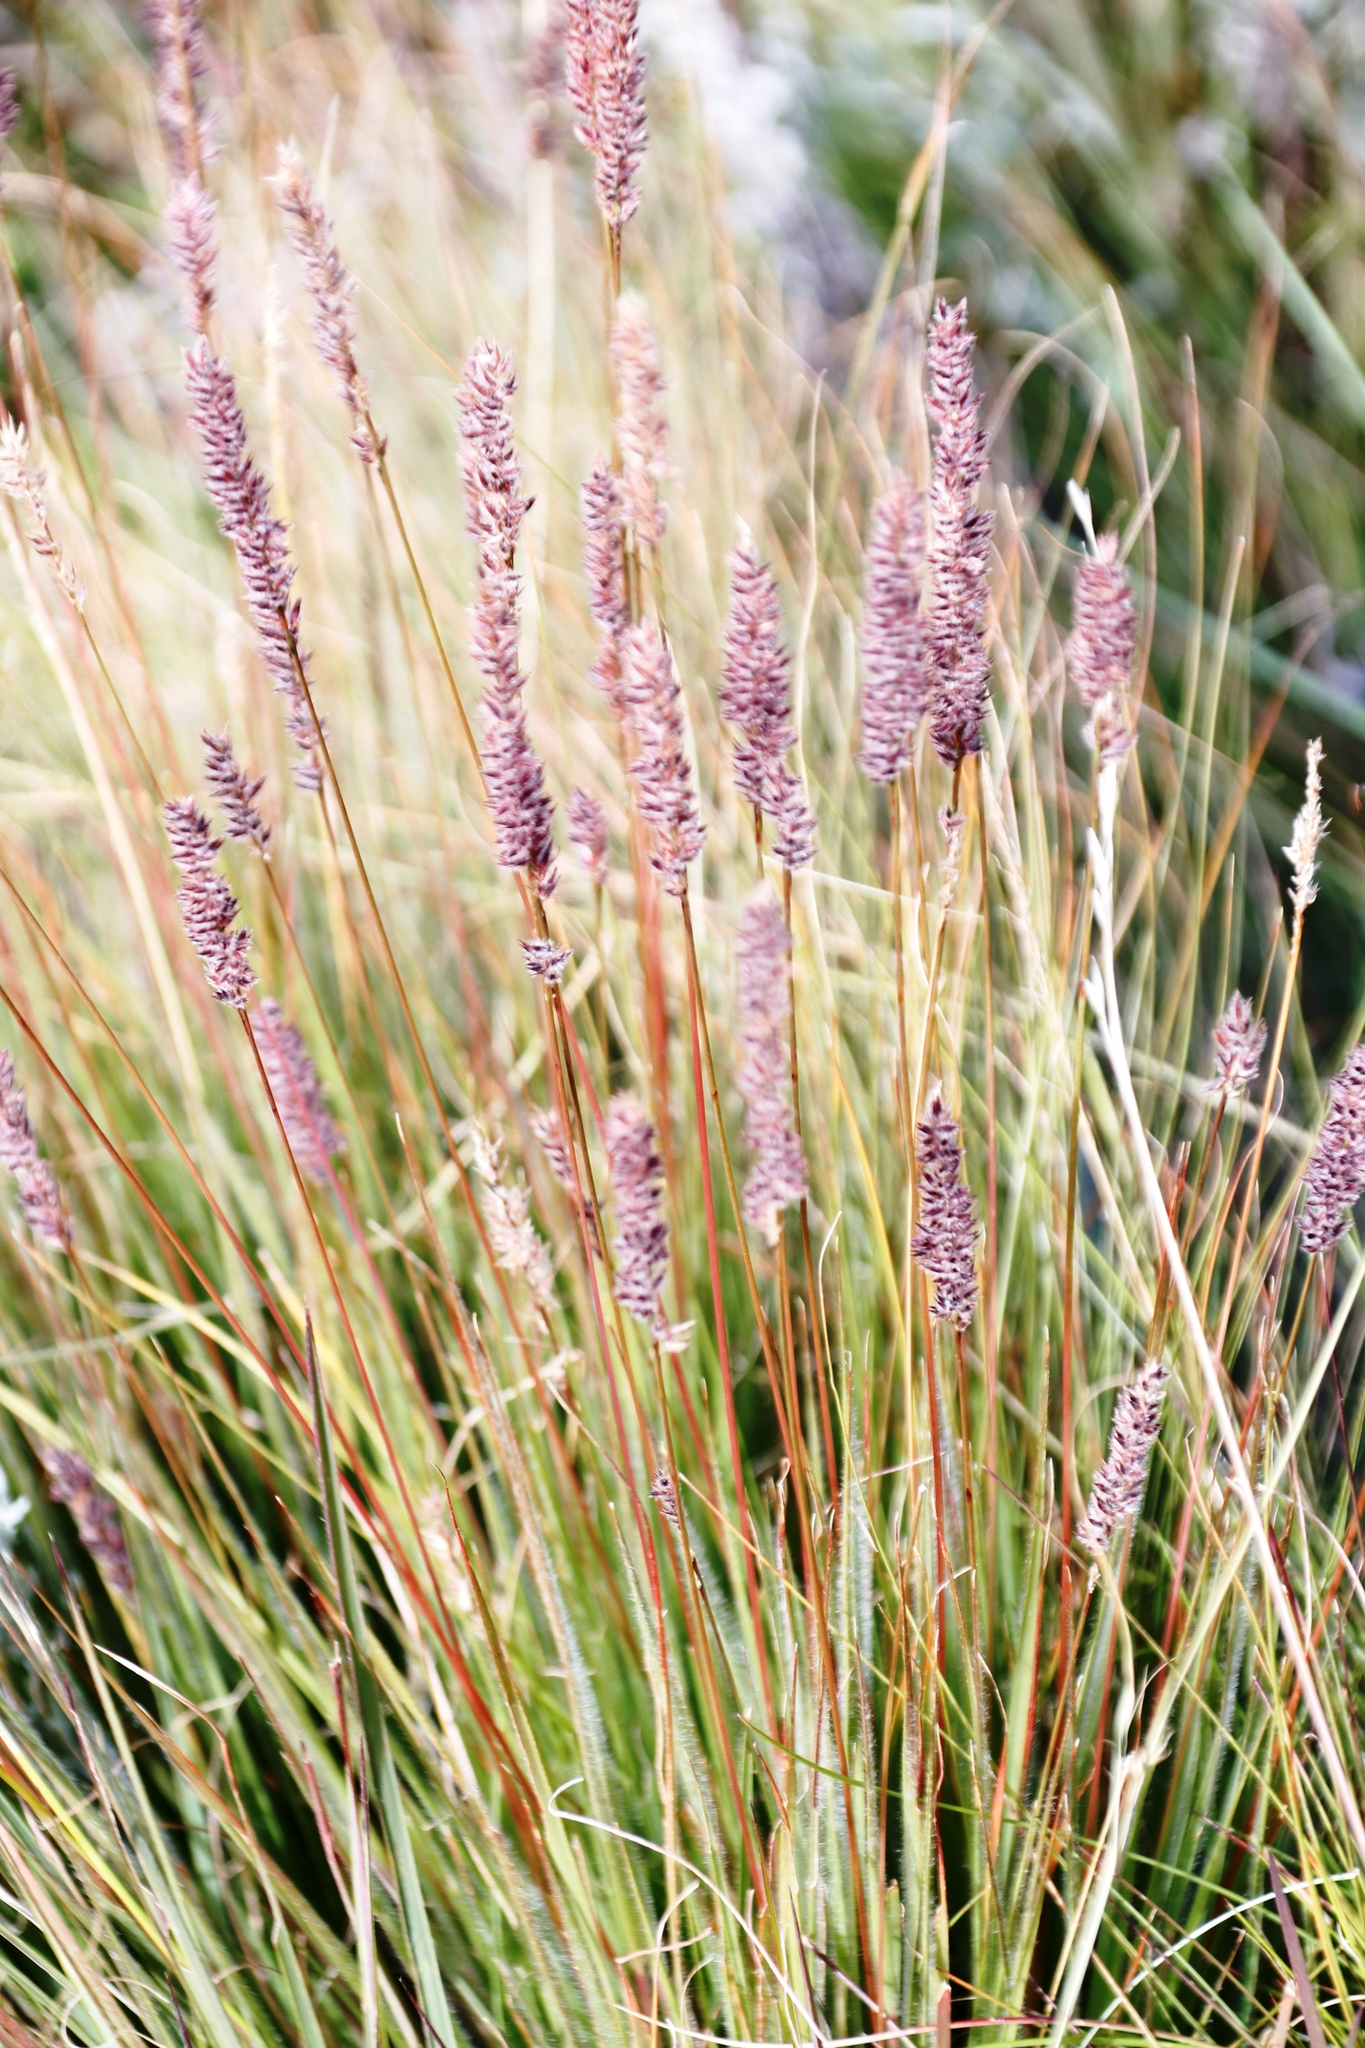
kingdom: Plantae
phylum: Tracheophyta
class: Liliopsida
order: Poales
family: Poaceae
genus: Stiburus
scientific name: Stiburus alopecuroides
